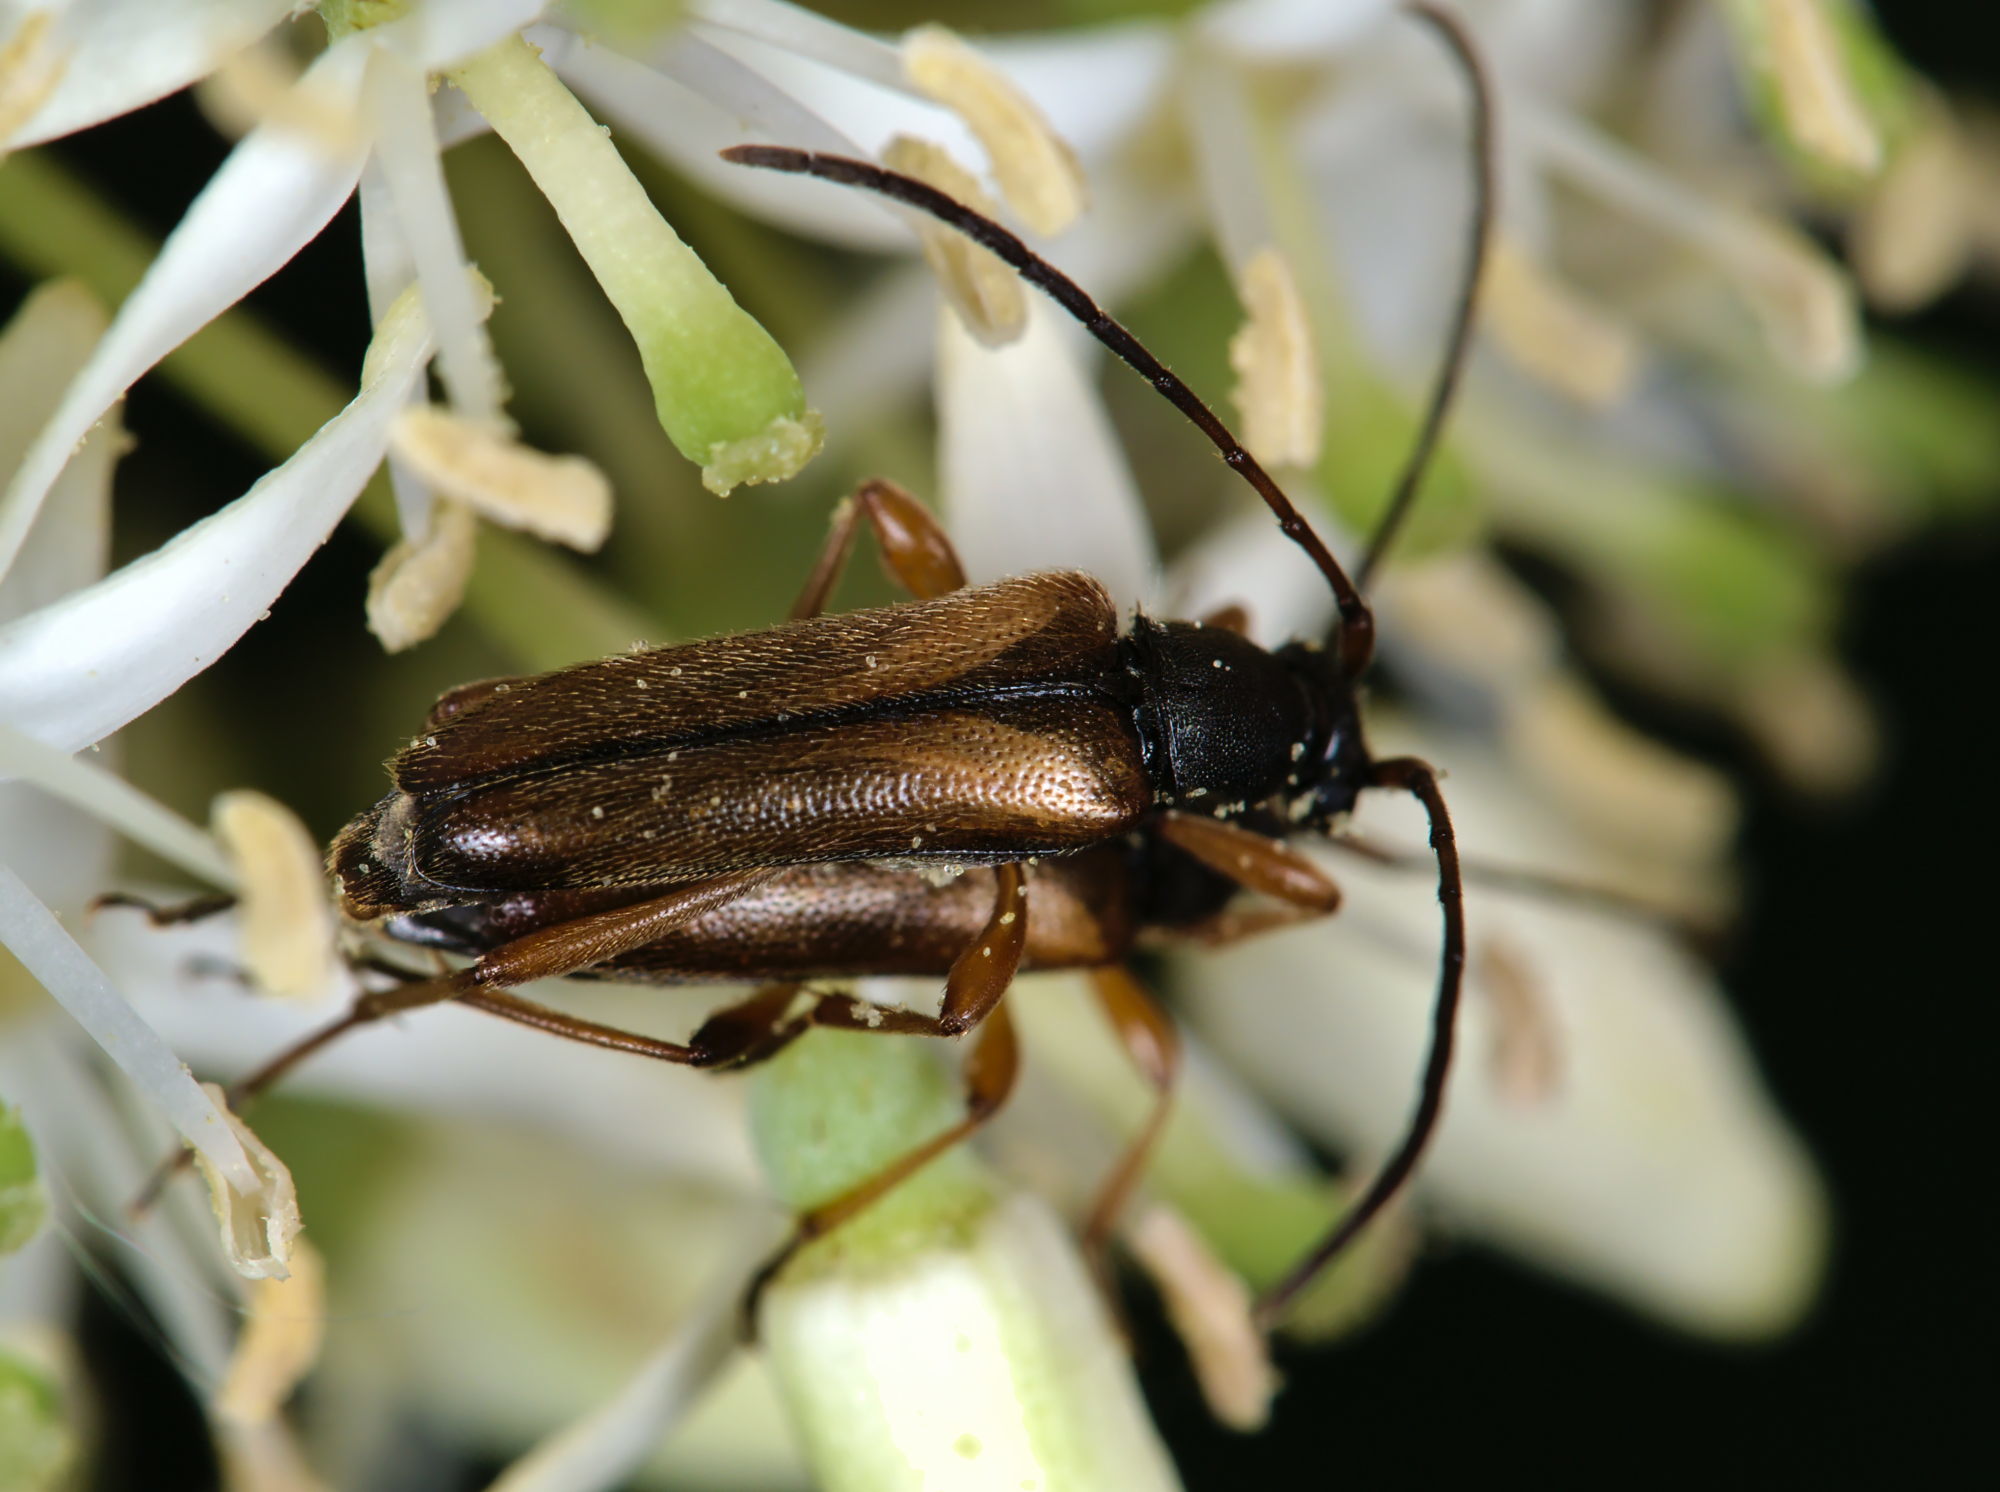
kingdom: Animalia
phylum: Arthropoda
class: Insecta
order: Coleoptera
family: Cerambycidae
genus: Alosterna
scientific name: Alosterna tabacicolor
